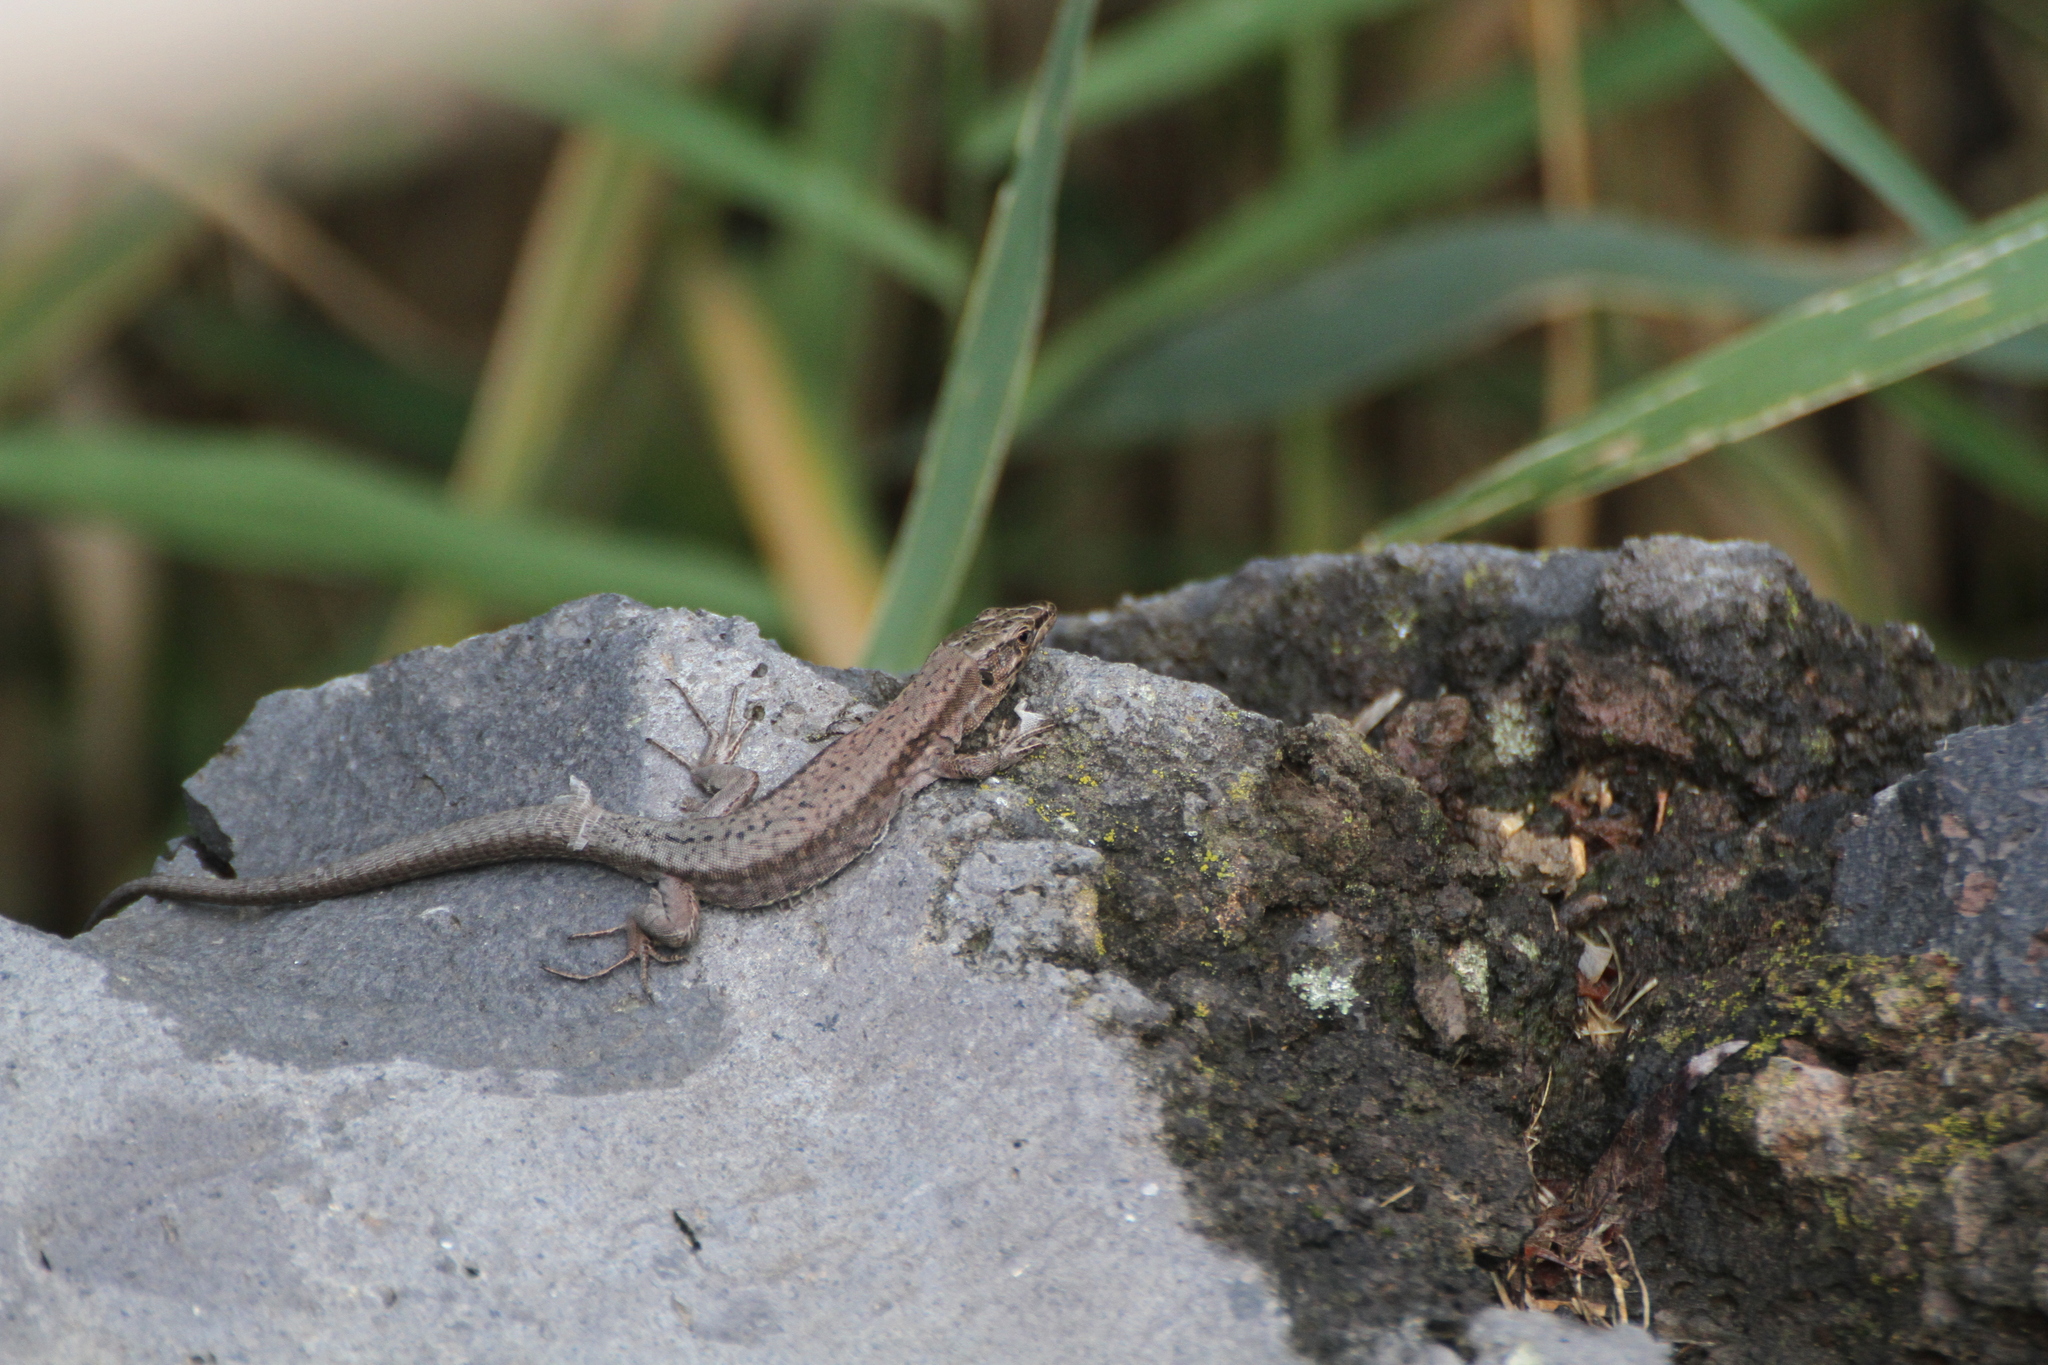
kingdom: Animalia
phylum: Chordata
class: Squamata
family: Lacertidae
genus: Podarcis
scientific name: Podarcis muralis
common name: Common wall lizard
